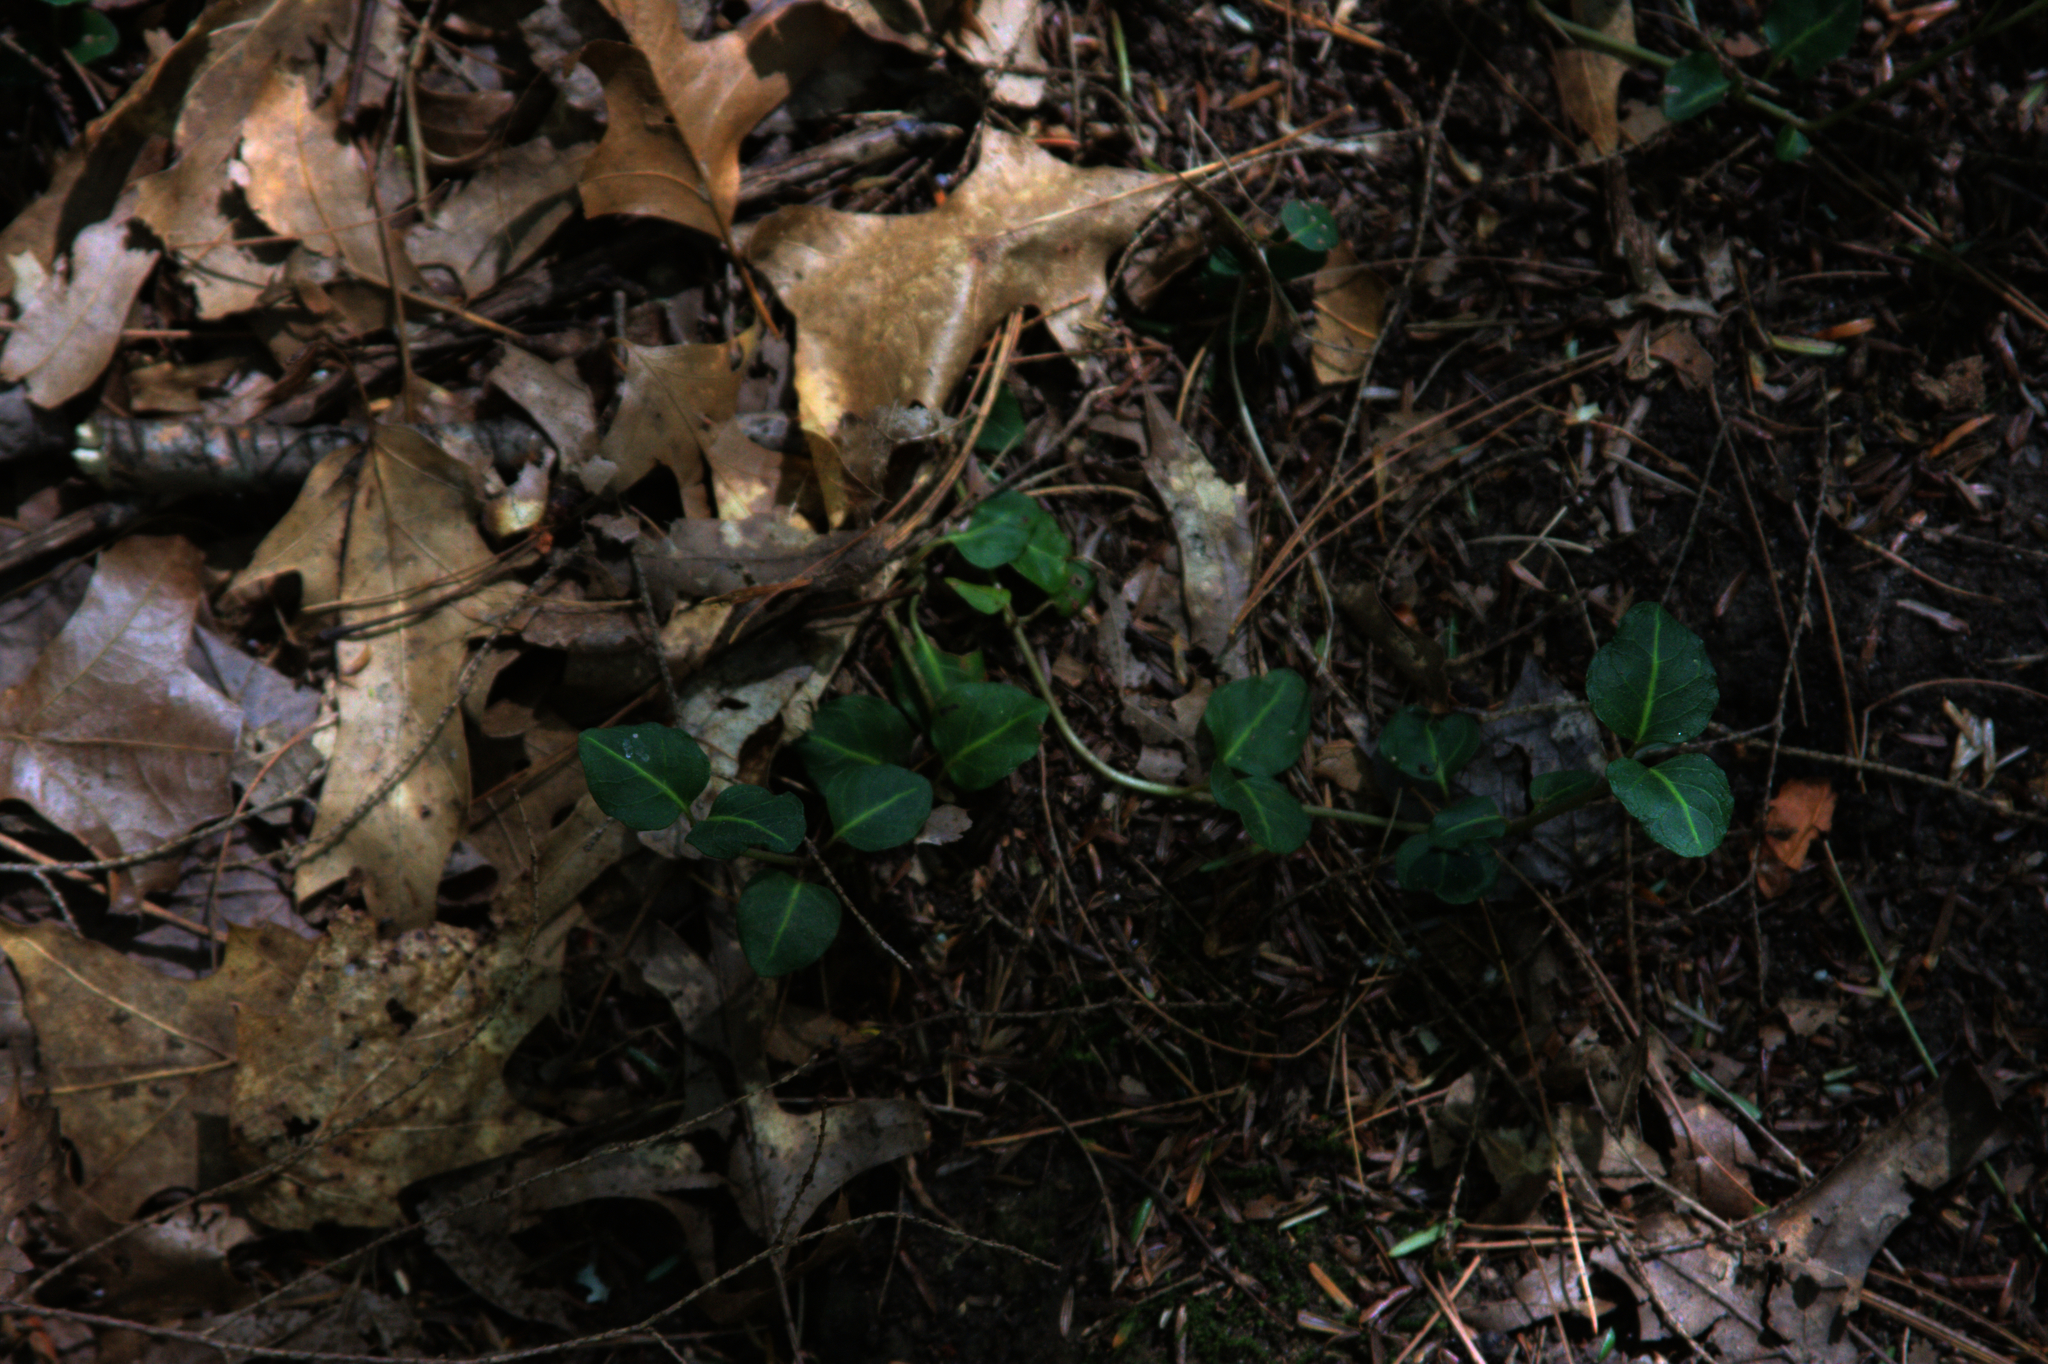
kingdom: Plantae
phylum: Tracheophyta
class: Magnoliopsida
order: Gentianales
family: Rubiaceae
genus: Mitchella
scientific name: Mitchella repens
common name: Partridge-berry
